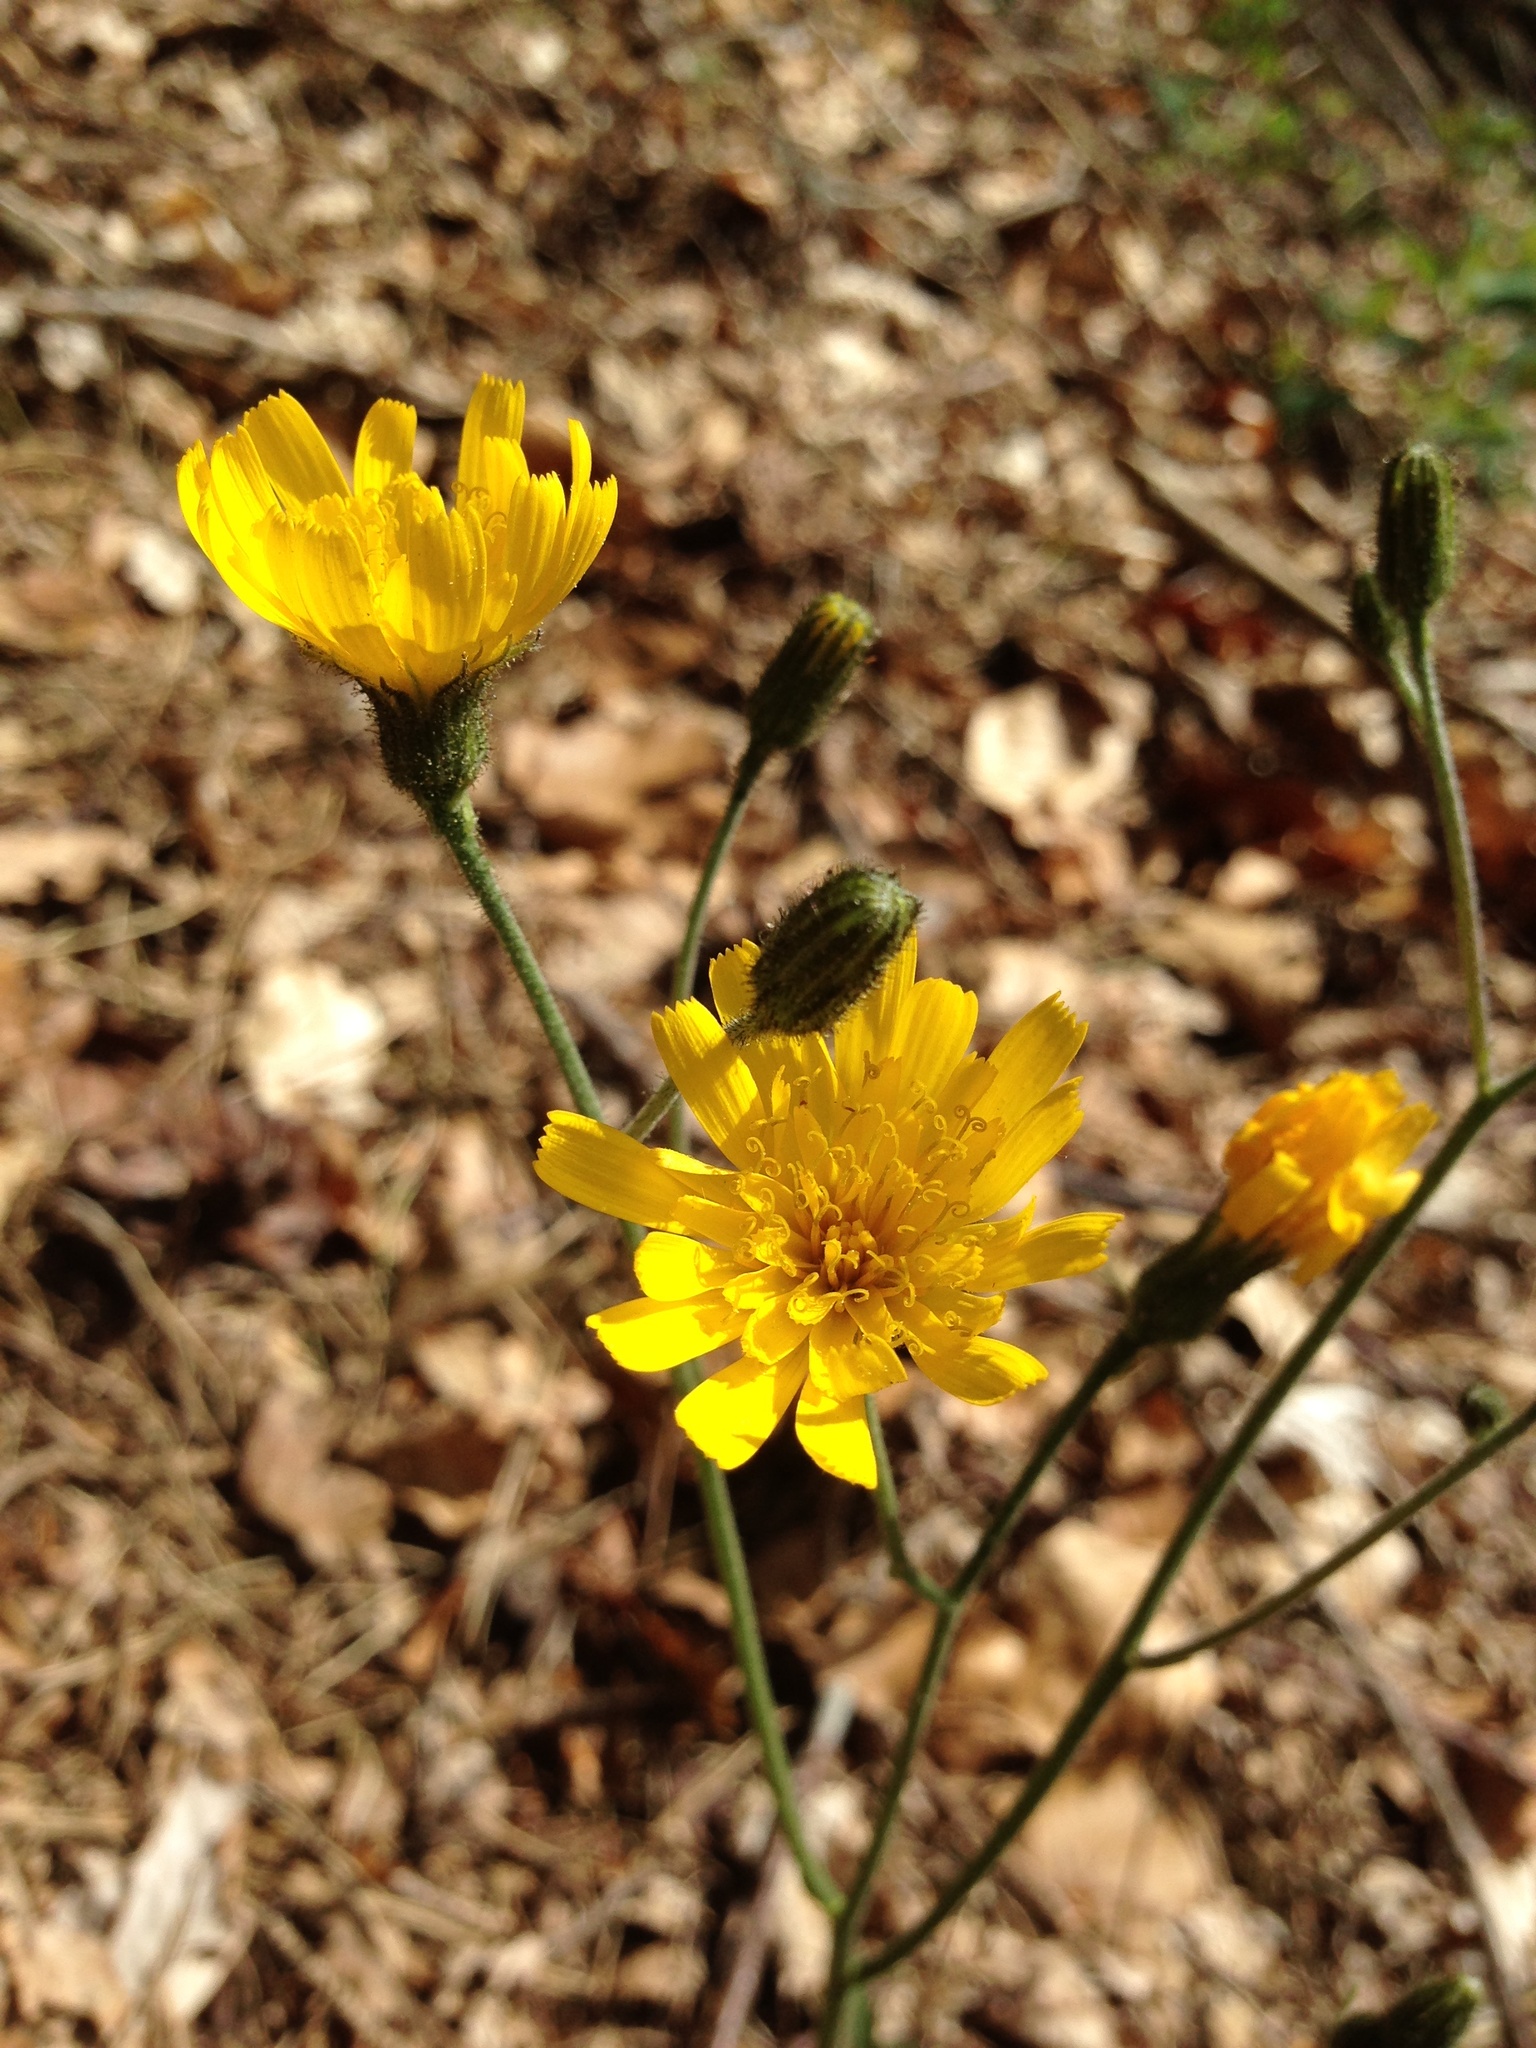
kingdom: Plantae
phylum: Tracheophyta
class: Magnoliopsida
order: Asterales
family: Asteraceae
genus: Hieracium
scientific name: Hieracium murorum
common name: Wall hawkweed
